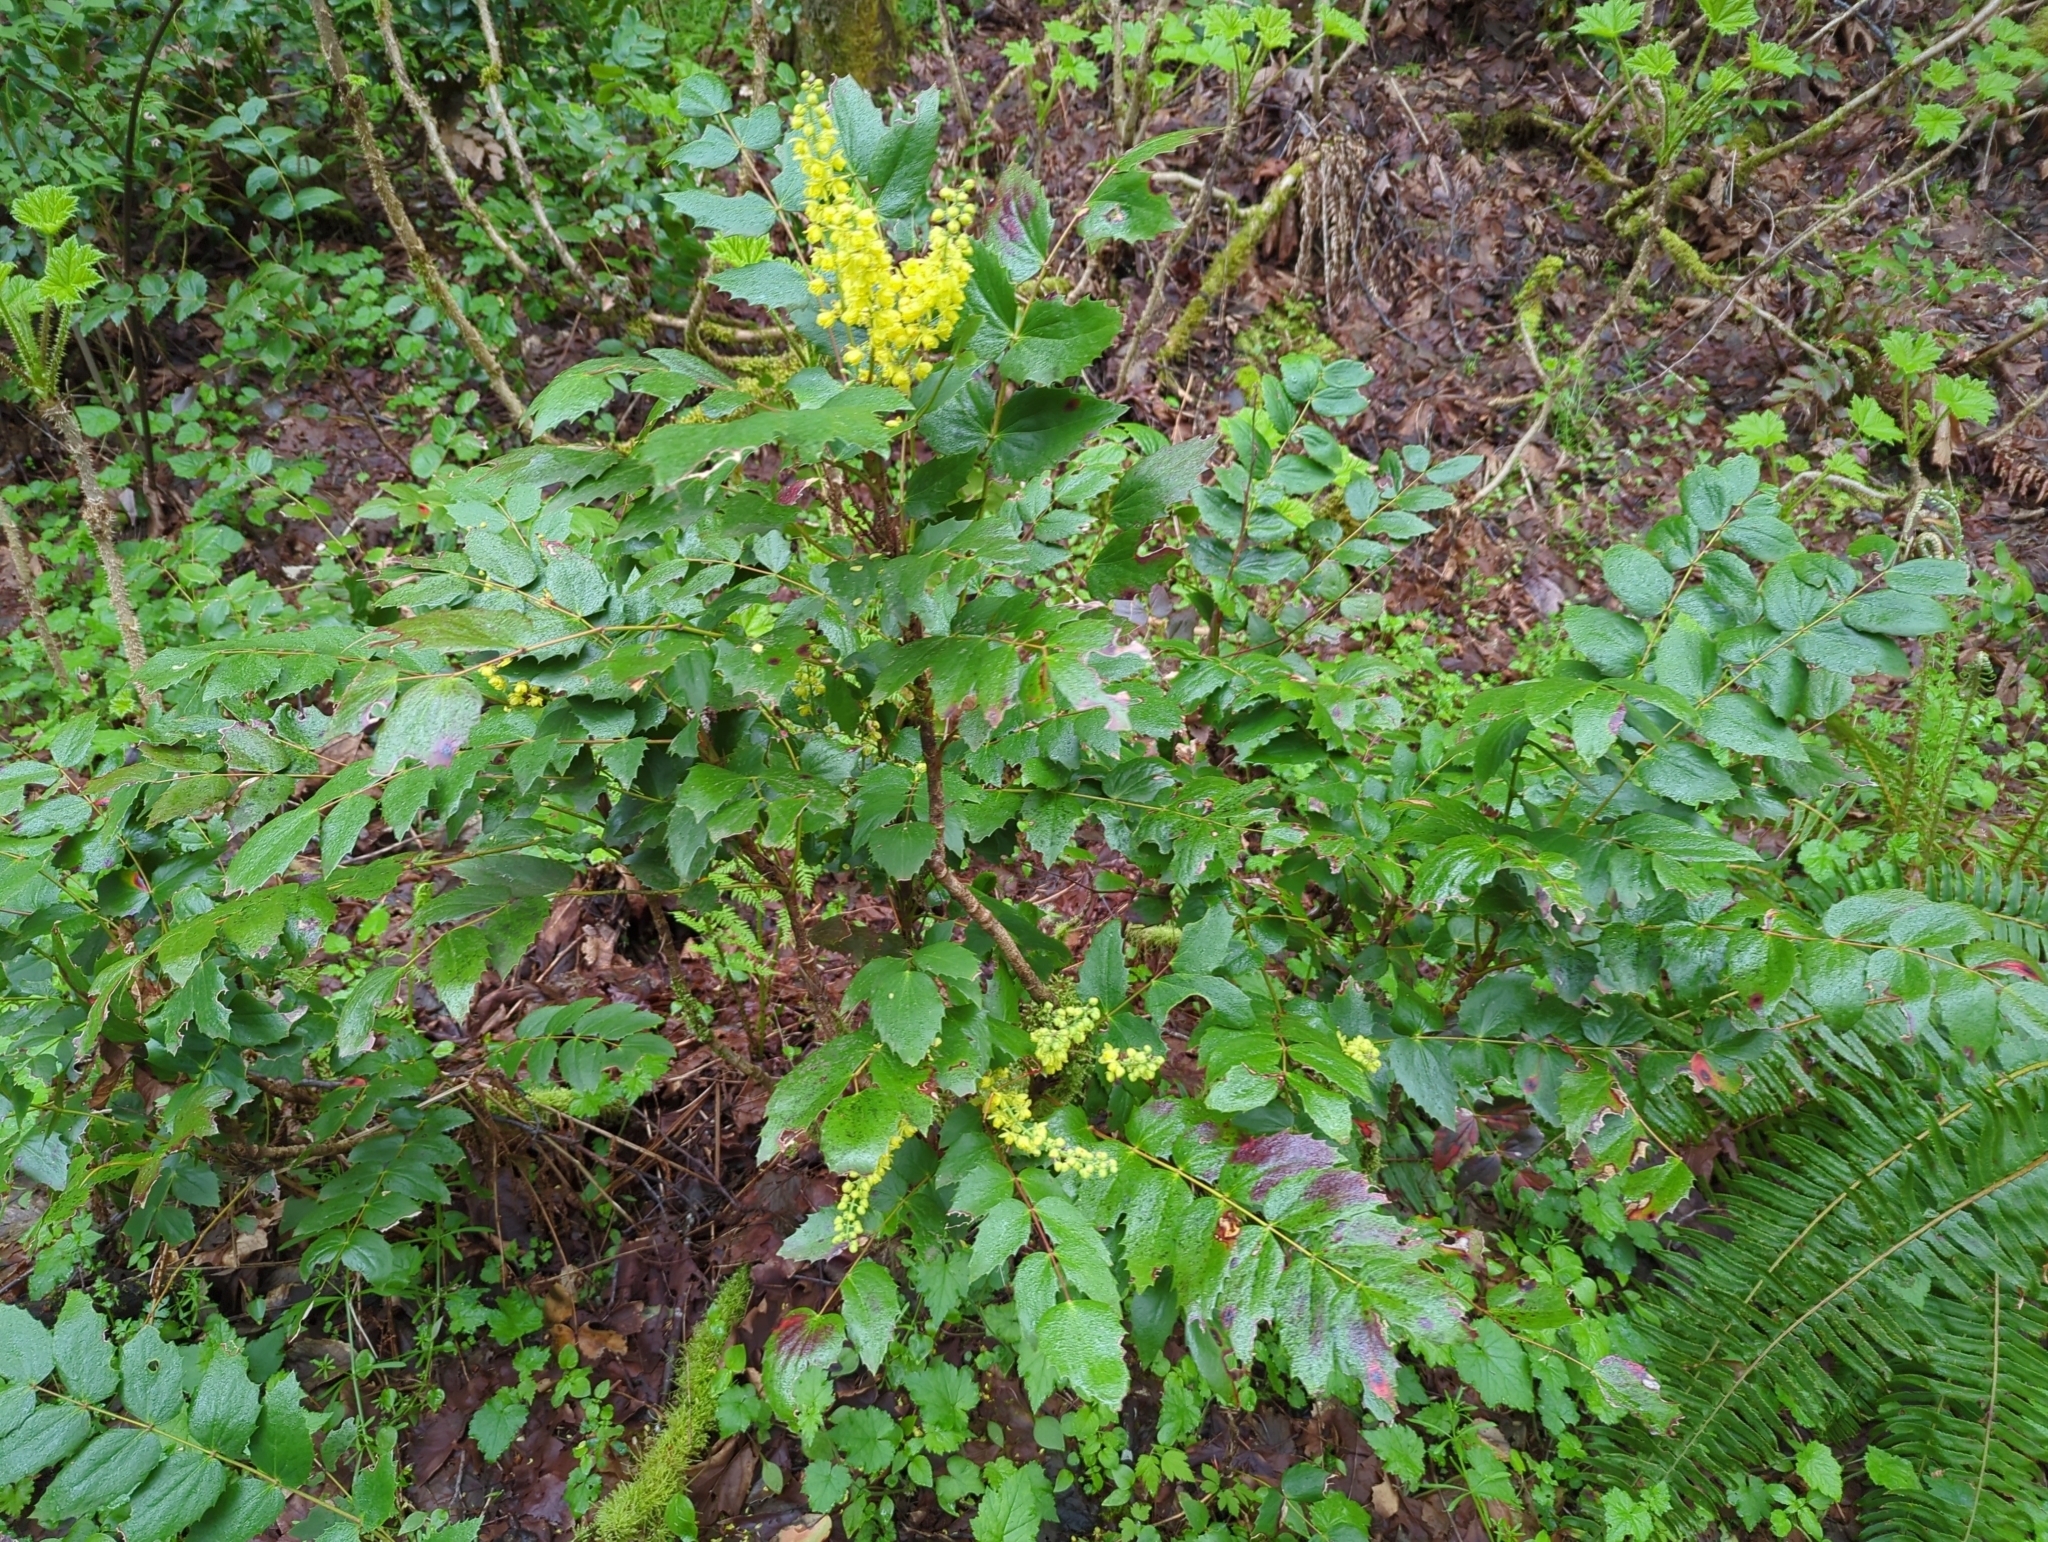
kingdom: Plantae
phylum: Tracheophyta
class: Magnoliopsida
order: Ranunculales
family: Berberidaceae
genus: Mahonia
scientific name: Mahonia nervosa
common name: Cascade oregon-grape
